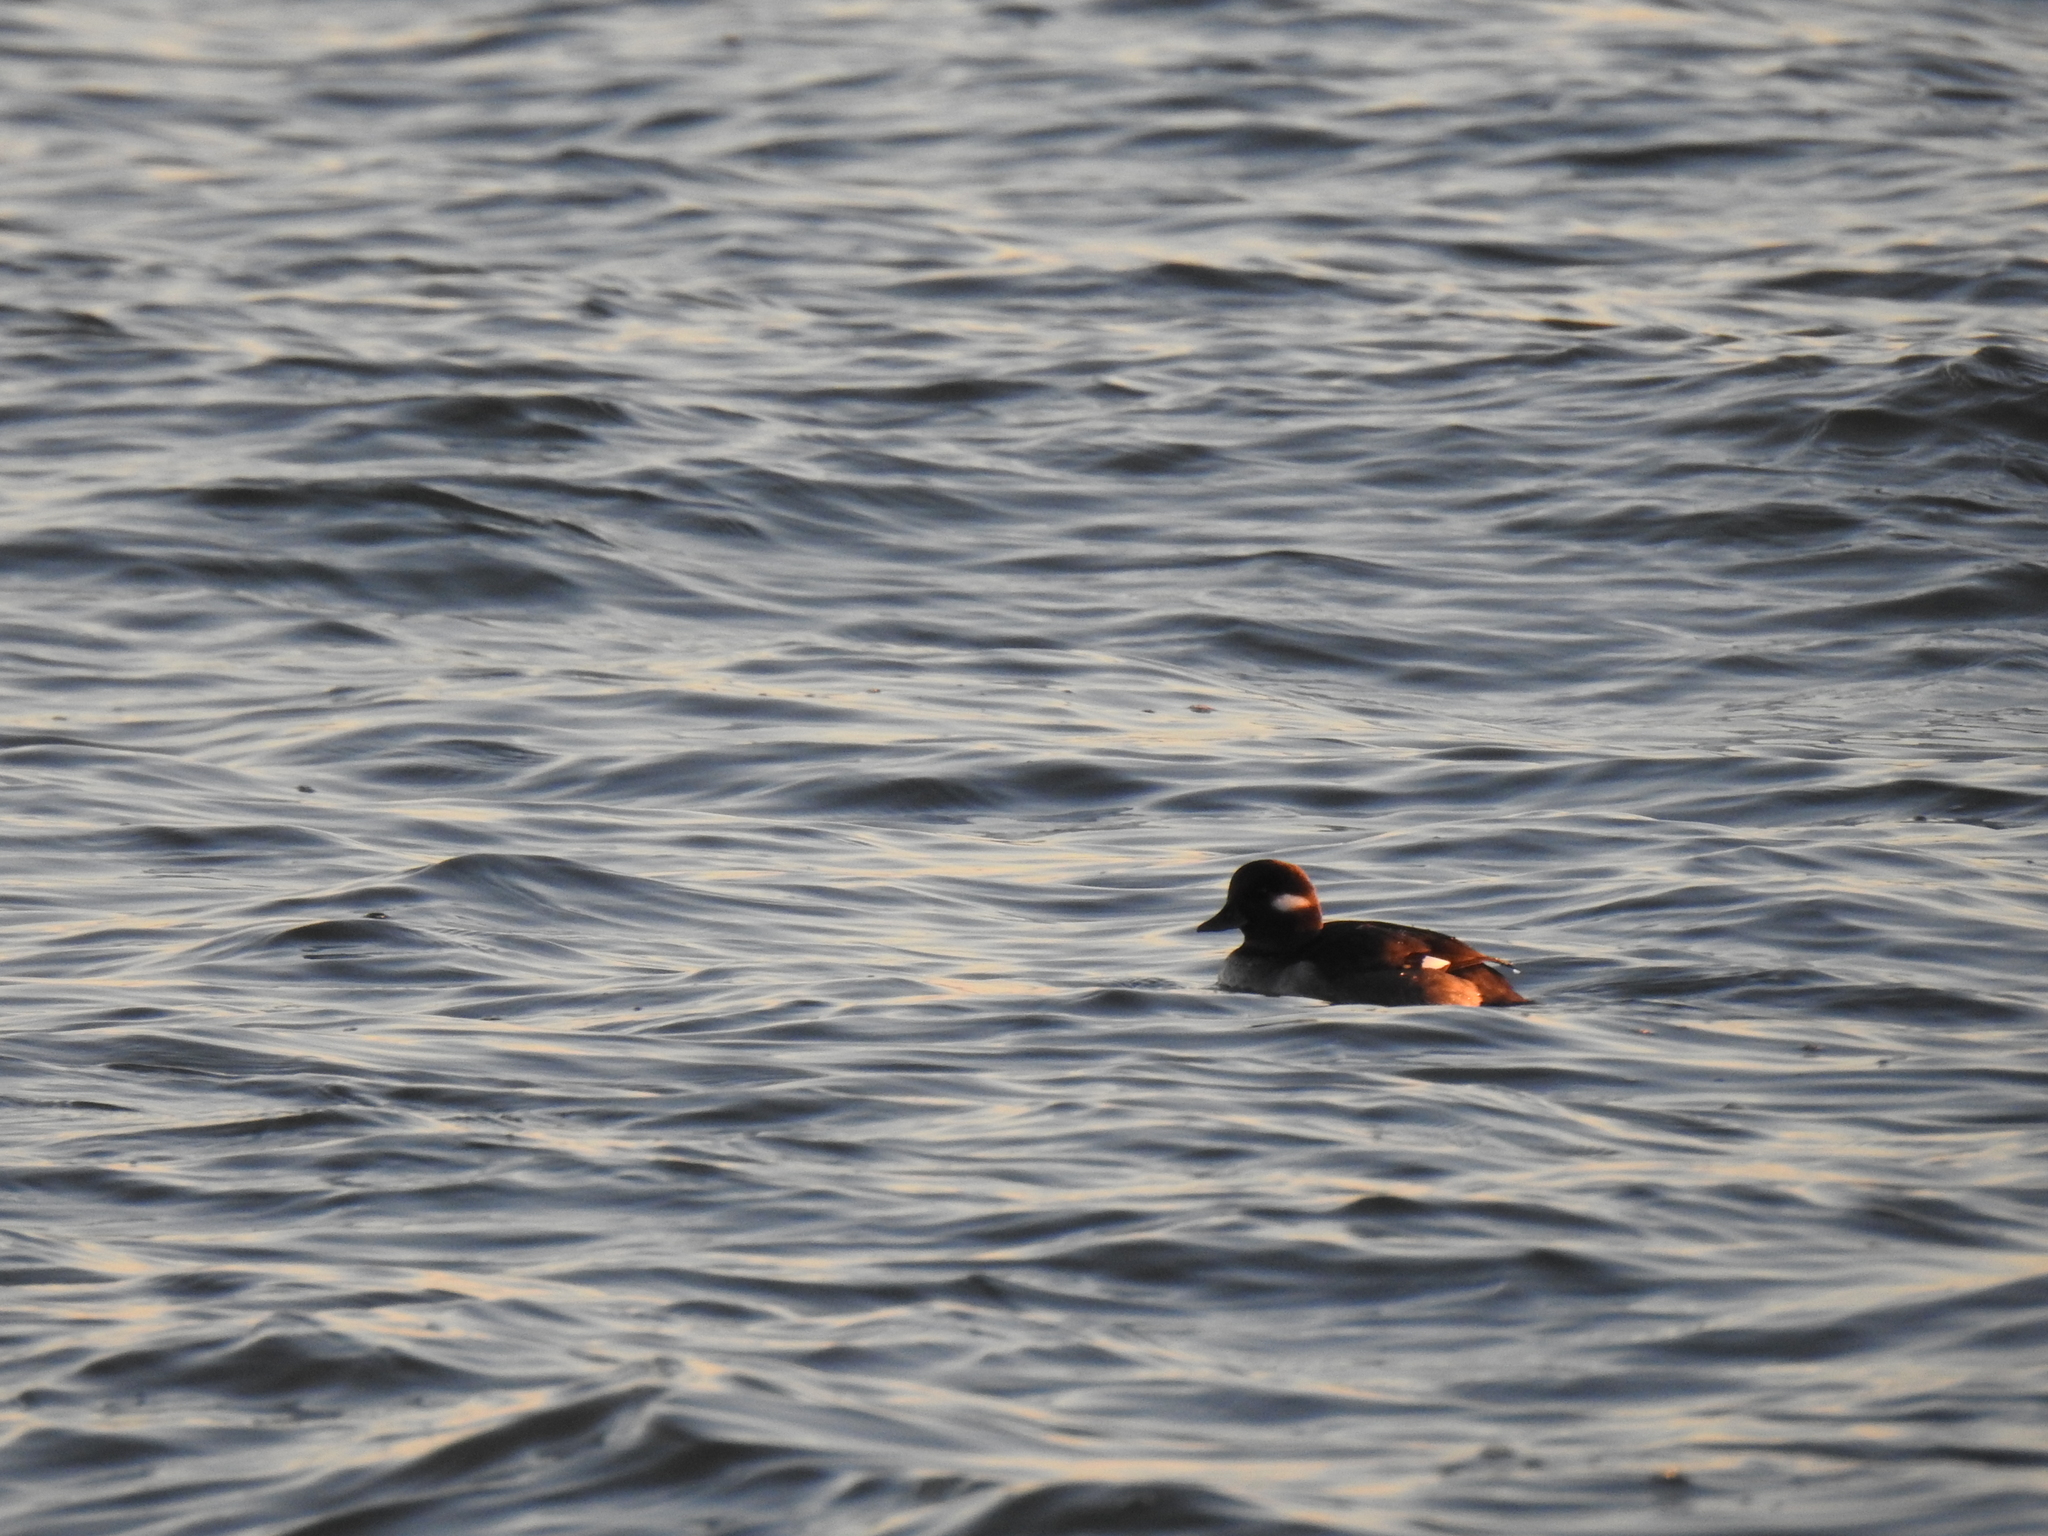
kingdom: Animalia
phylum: Chordata
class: Aves
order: Anseriformes
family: Anatidae
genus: Bucephala
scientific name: Bucephala albeola
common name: Bufflehead
